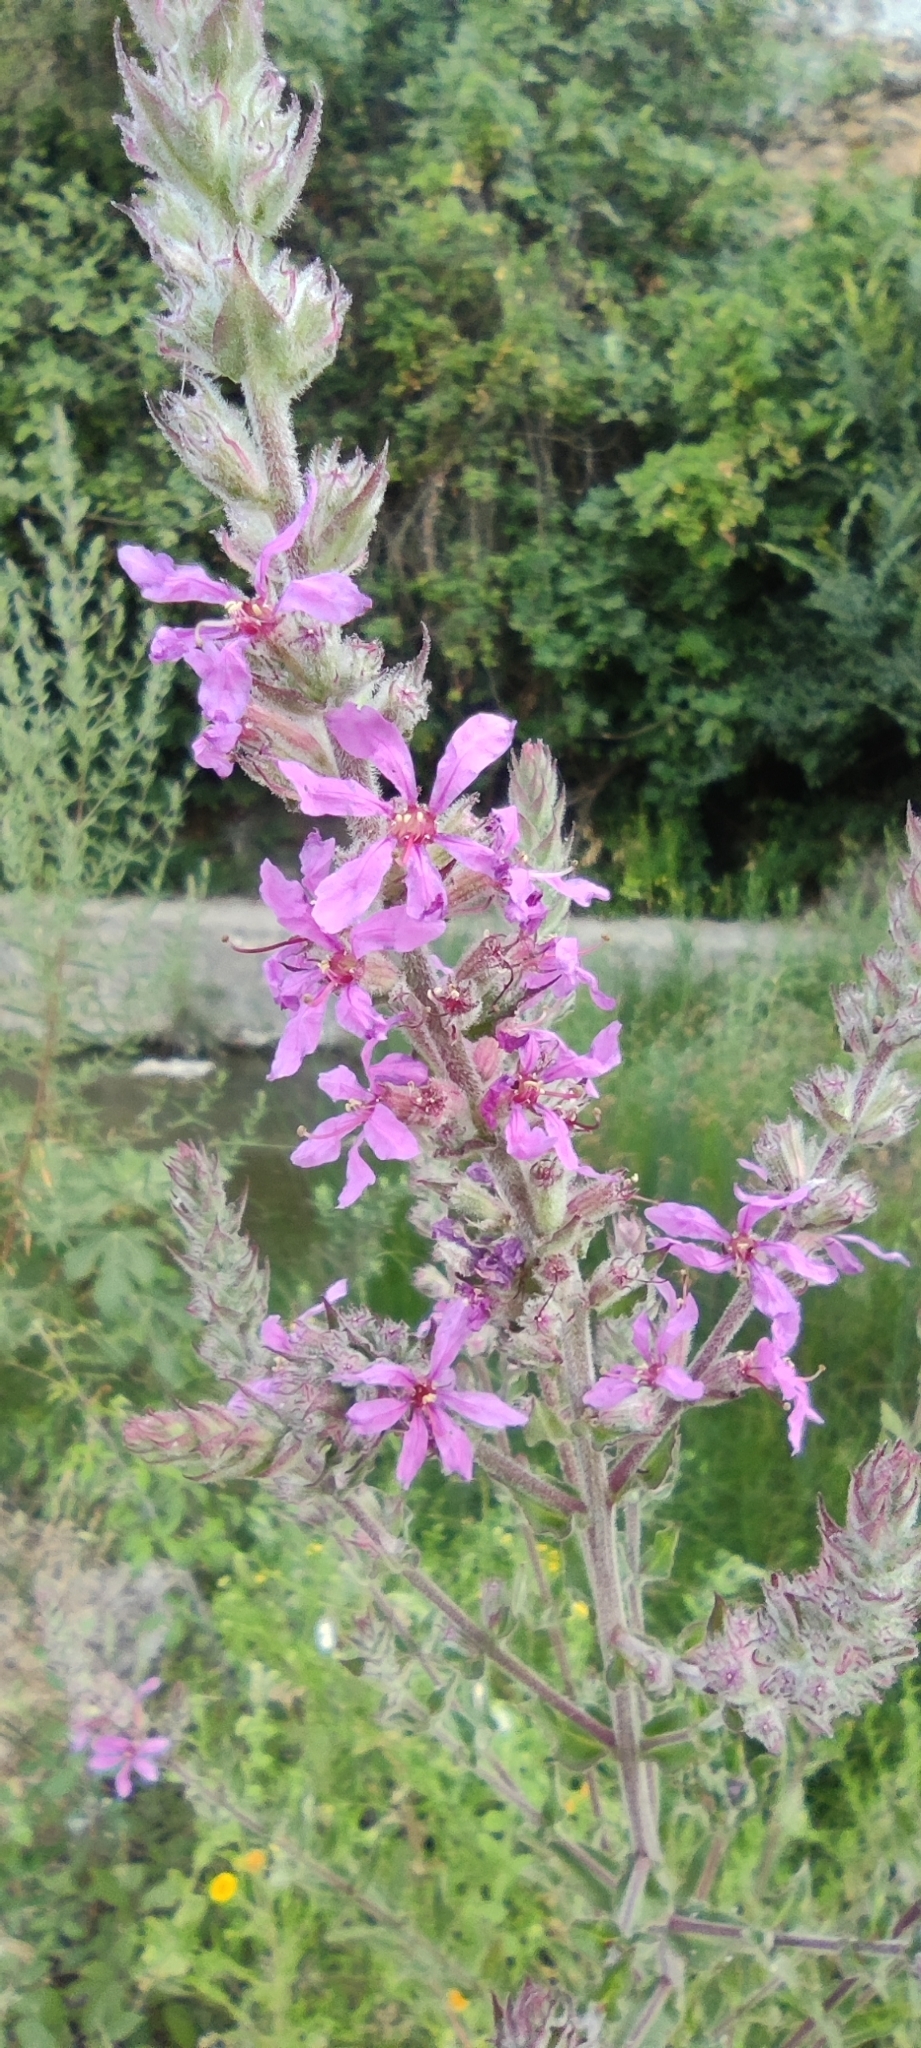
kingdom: Plantae
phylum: Tracheophyta
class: Magnoliopsida
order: Myrtales
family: Lythraceae
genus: Lythrum
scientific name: Lythrum salicaria
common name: Purple loosestrife
